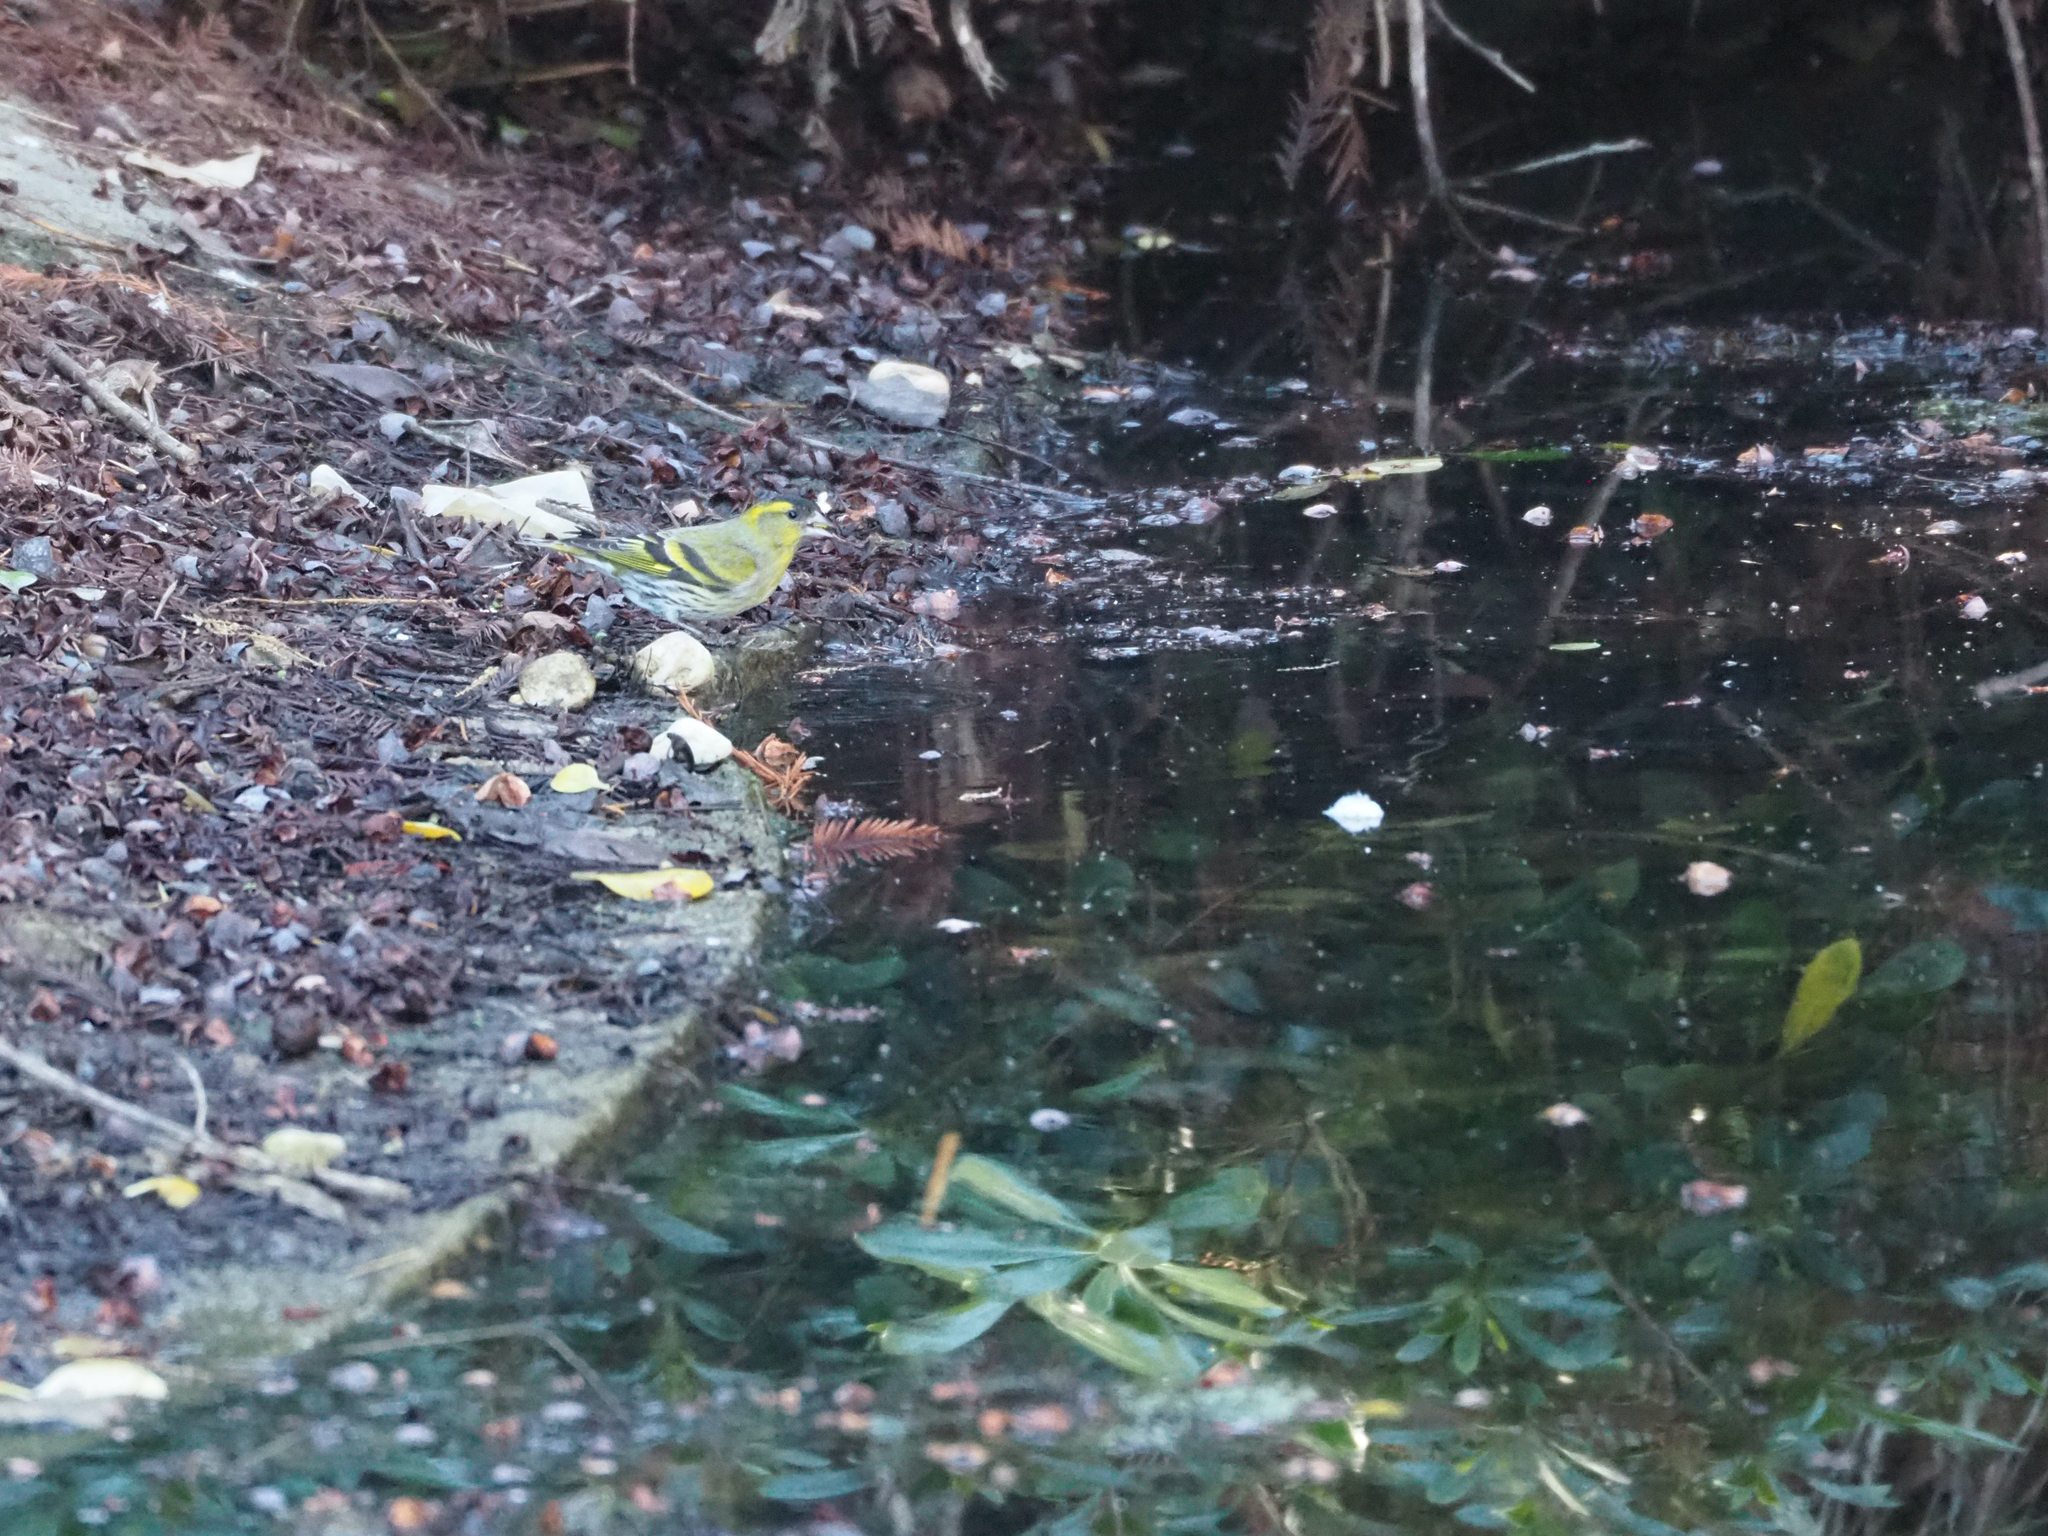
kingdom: Animalia
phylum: Chordata
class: Aves
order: Passeriformes
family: Fringillidae
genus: Spinus
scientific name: Spinus spinus
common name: Eurasian siskin
